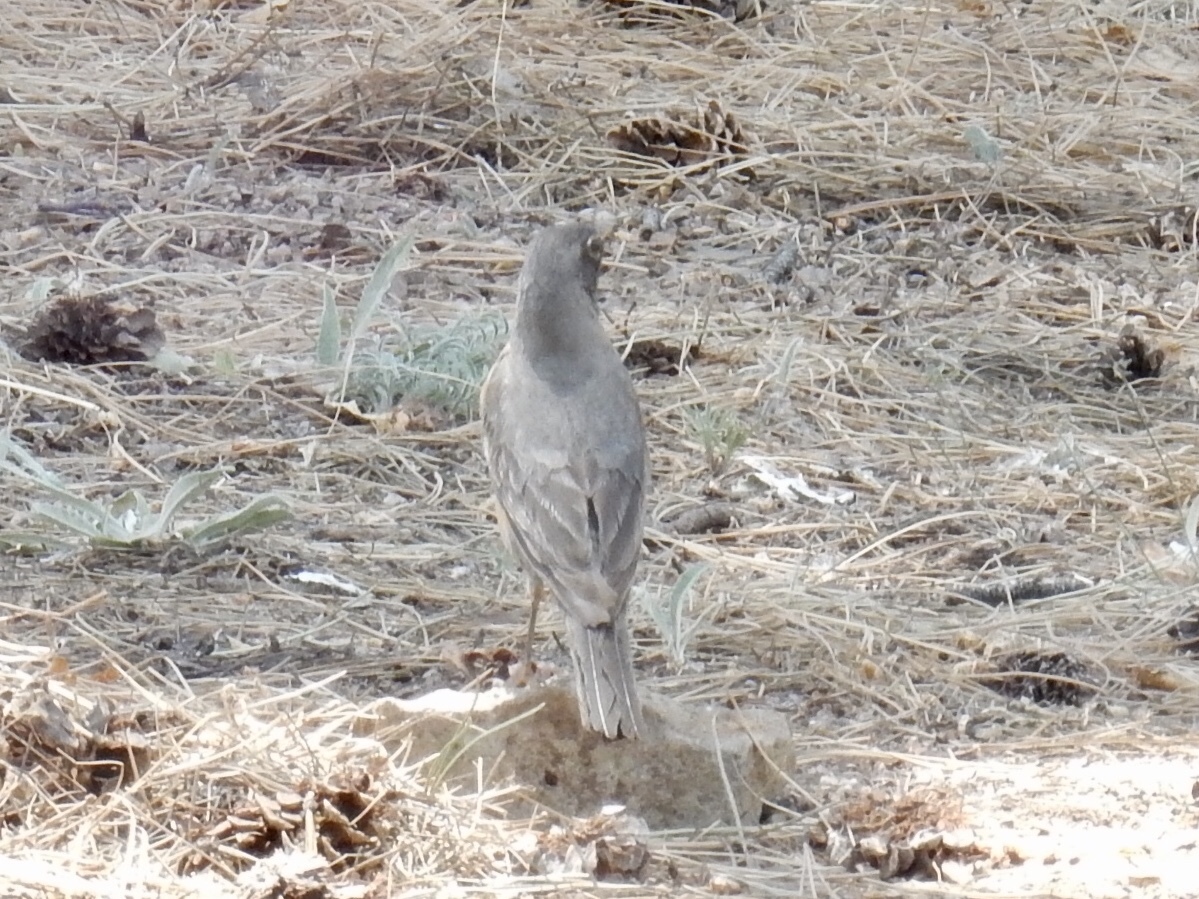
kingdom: Animalia
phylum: Chordata
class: Aves
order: Passeriformes
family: Turdidae
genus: Turdus
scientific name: Turdus migratorius
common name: American robin
